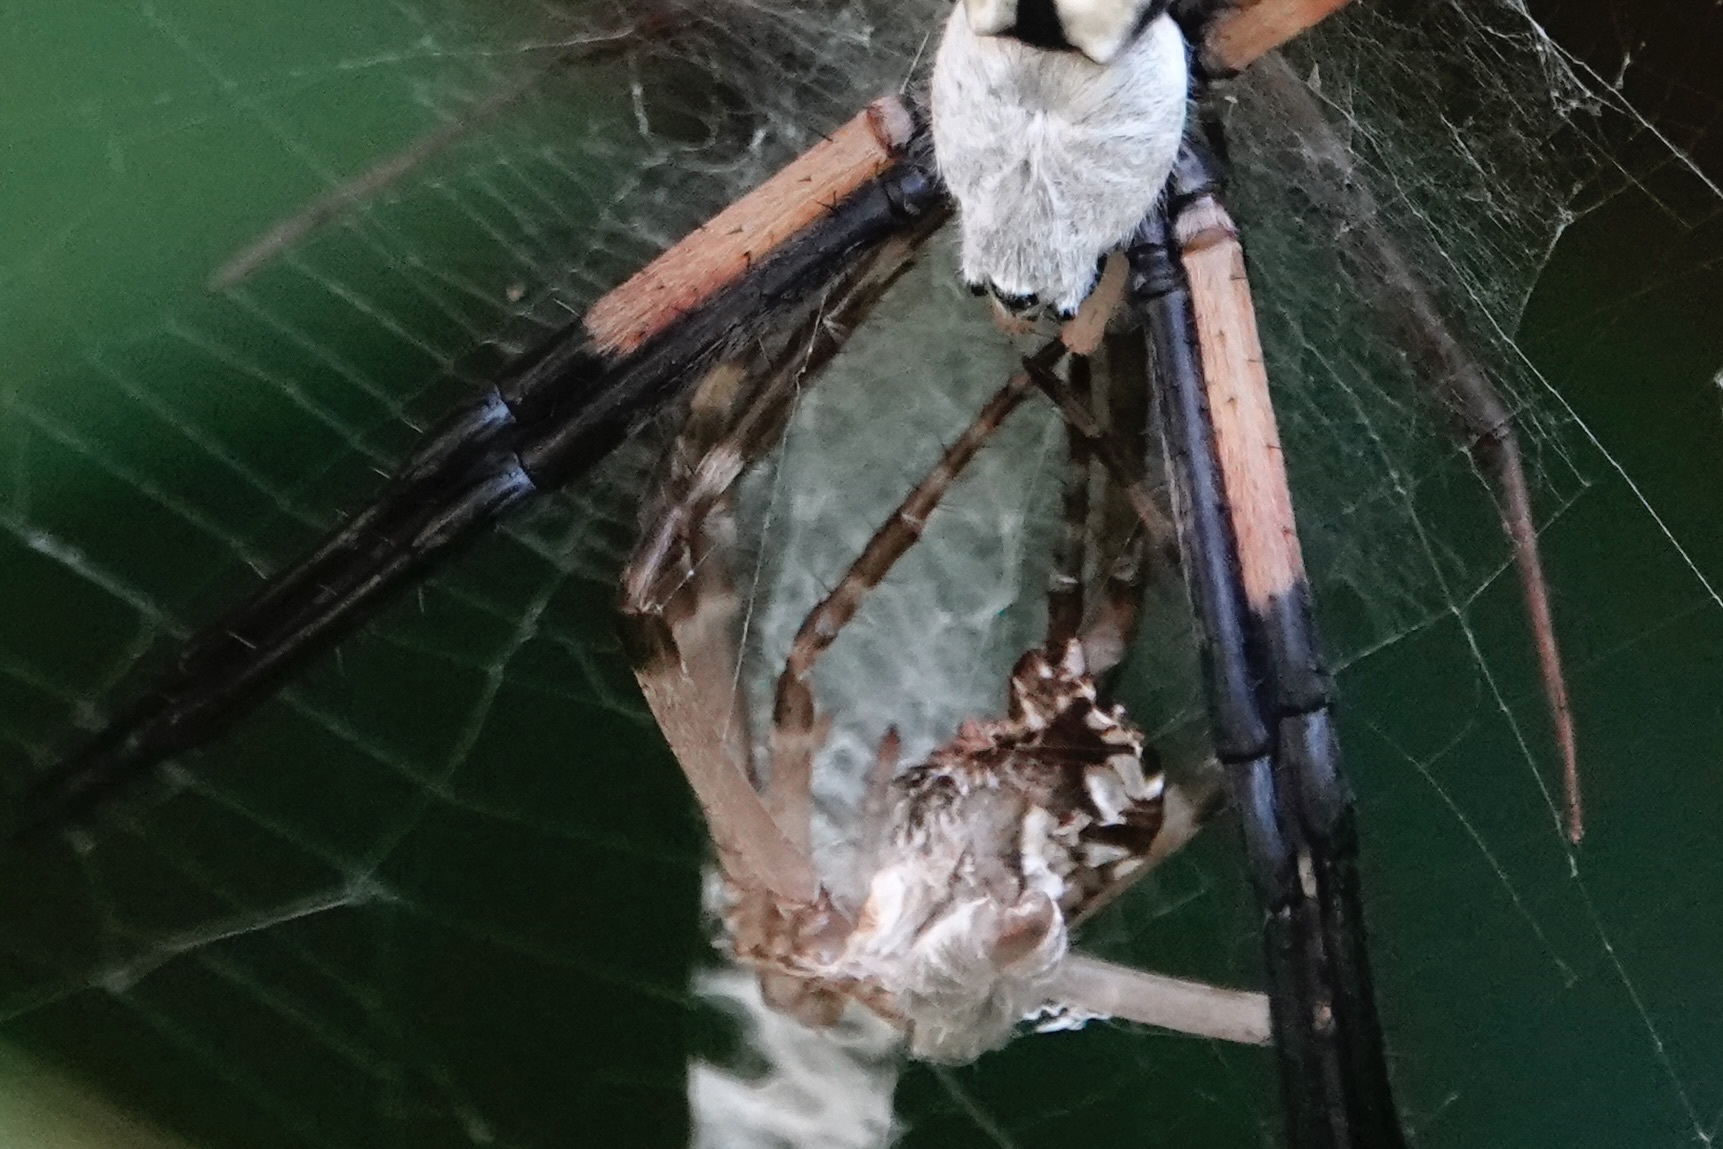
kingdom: Animalia
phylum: Arthropoda
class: Arachnida
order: Araneae
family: Araneidae
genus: Argiope
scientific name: Argiope aurantia
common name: Orb weavers
